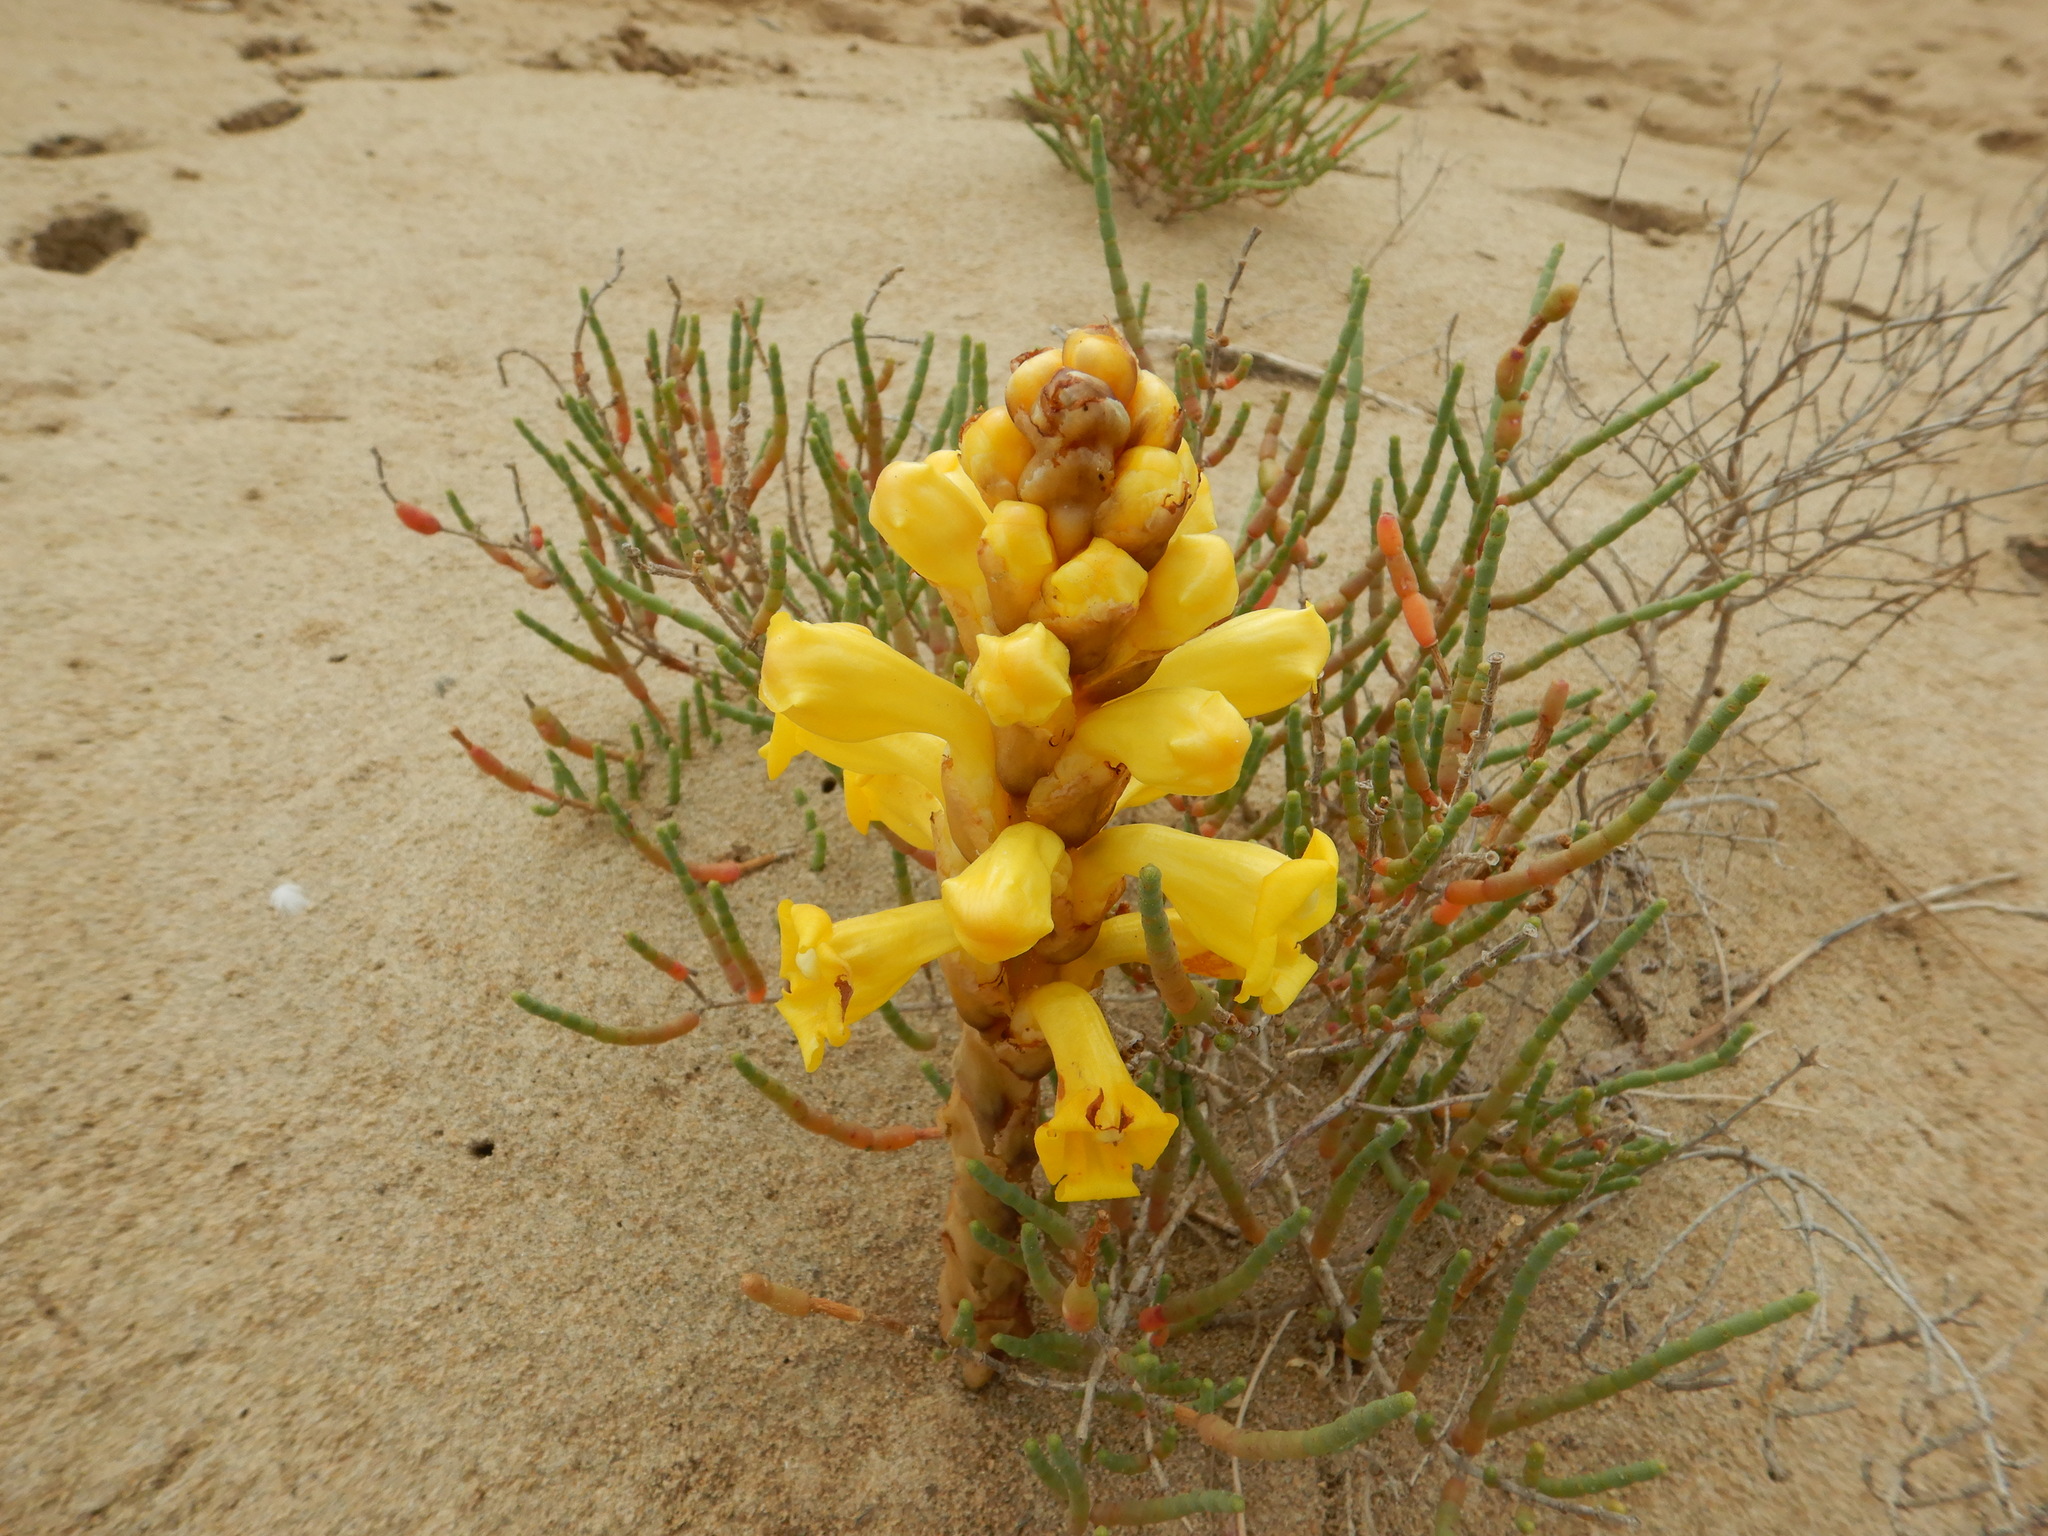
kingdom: Plantae
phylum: Tracheophyta
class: Magnoliopsida
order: Lamiales
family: Orobanchaceae
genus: Cistanche
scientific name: Cistanche phelypaea
